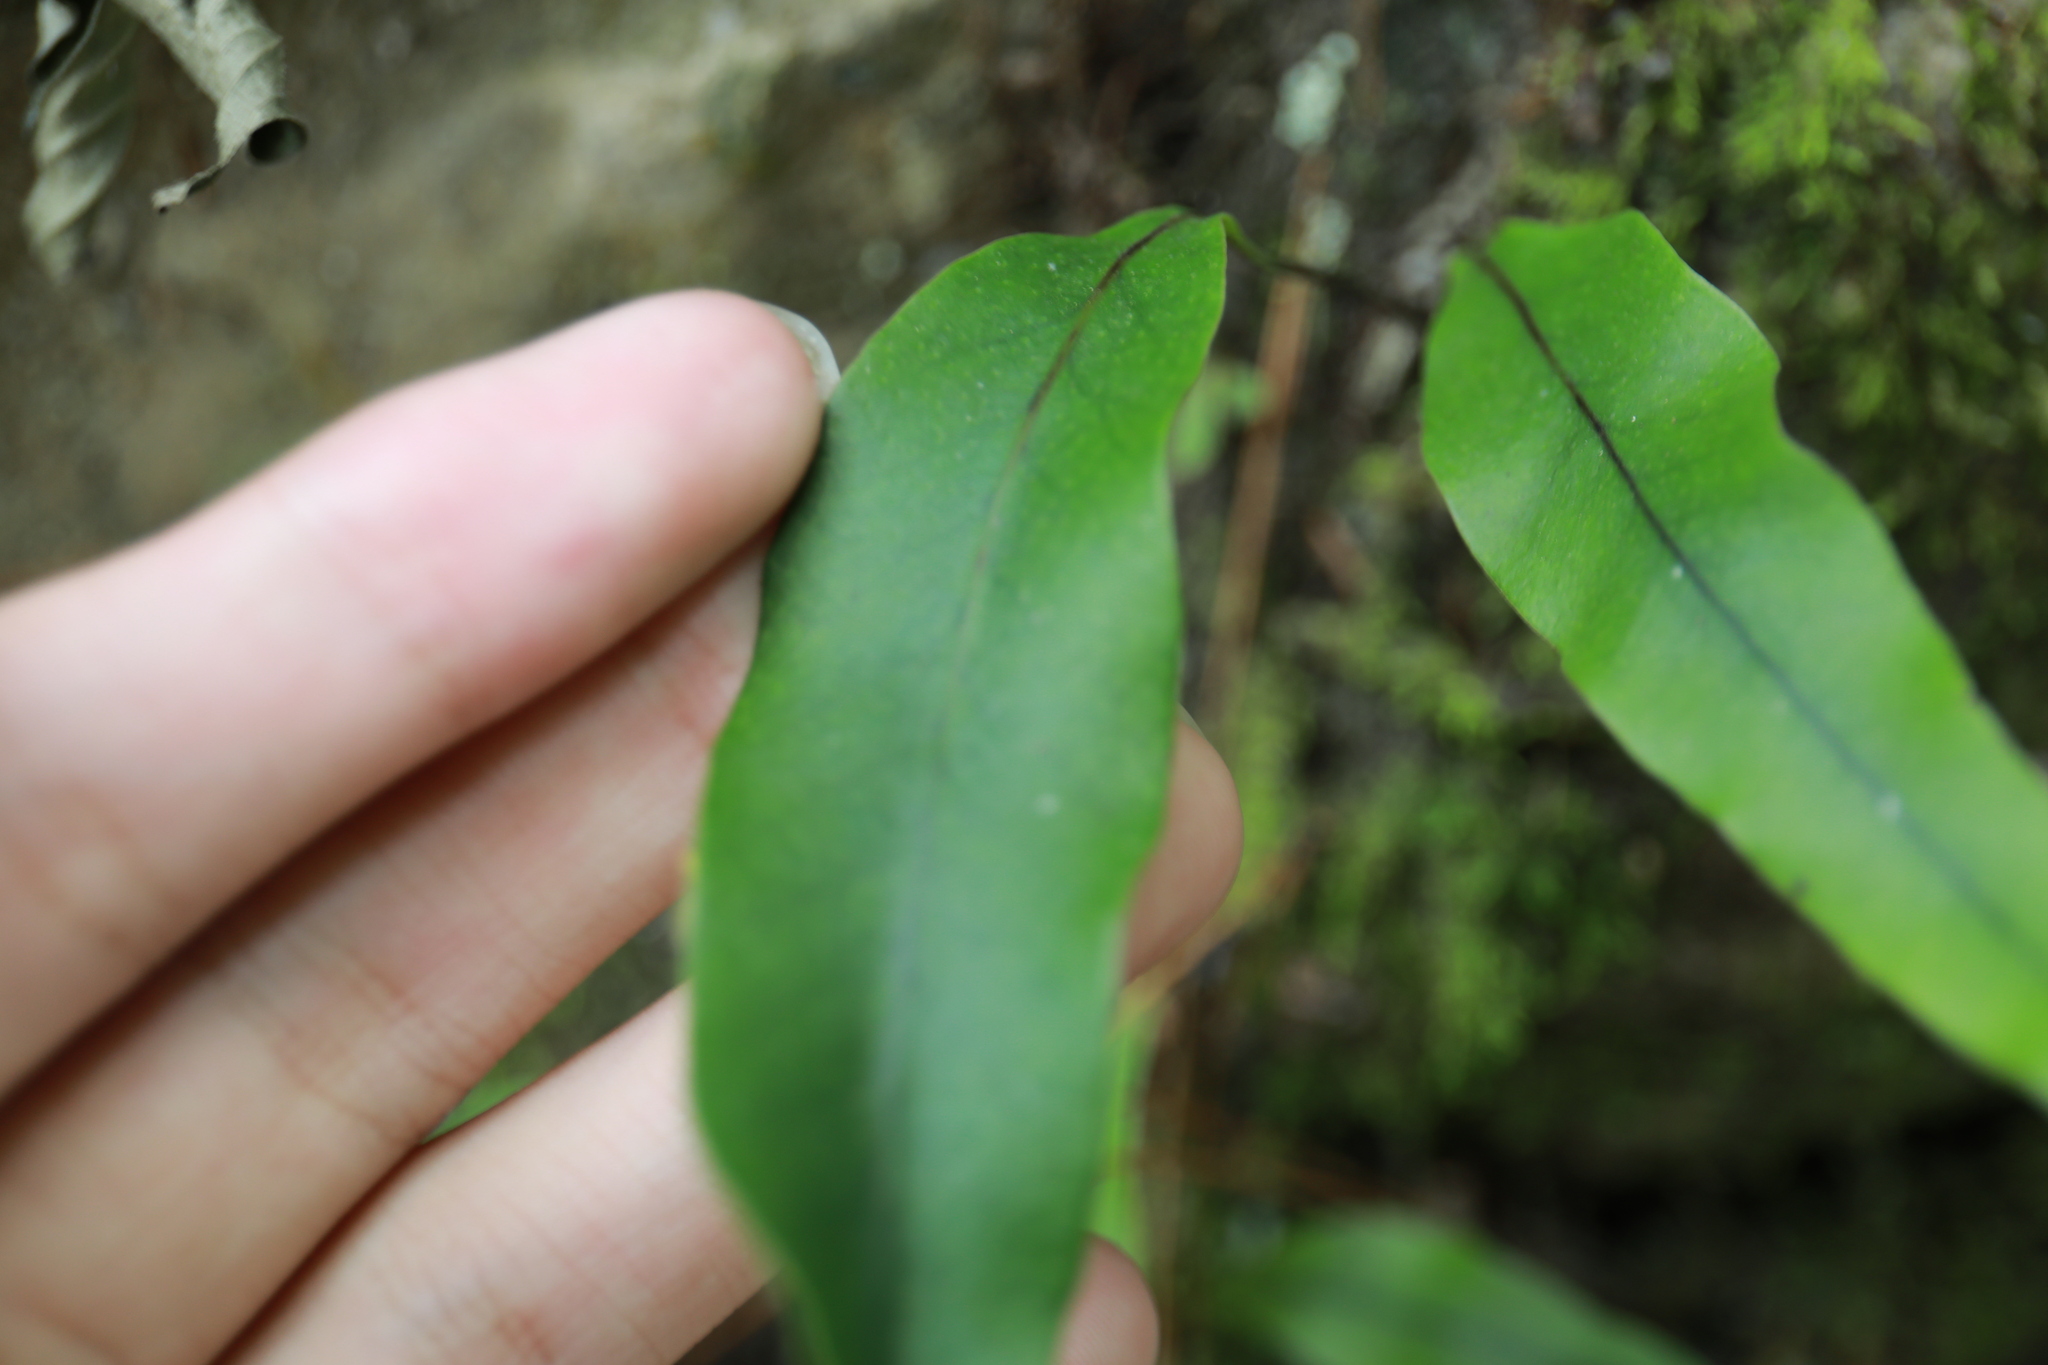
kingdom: Plantae
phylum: Tracheophyta
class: Polypodiopsida
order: Polypodiales
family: Polypodiaceae
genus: Lepisorus
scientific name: Lepisorus megasorus
